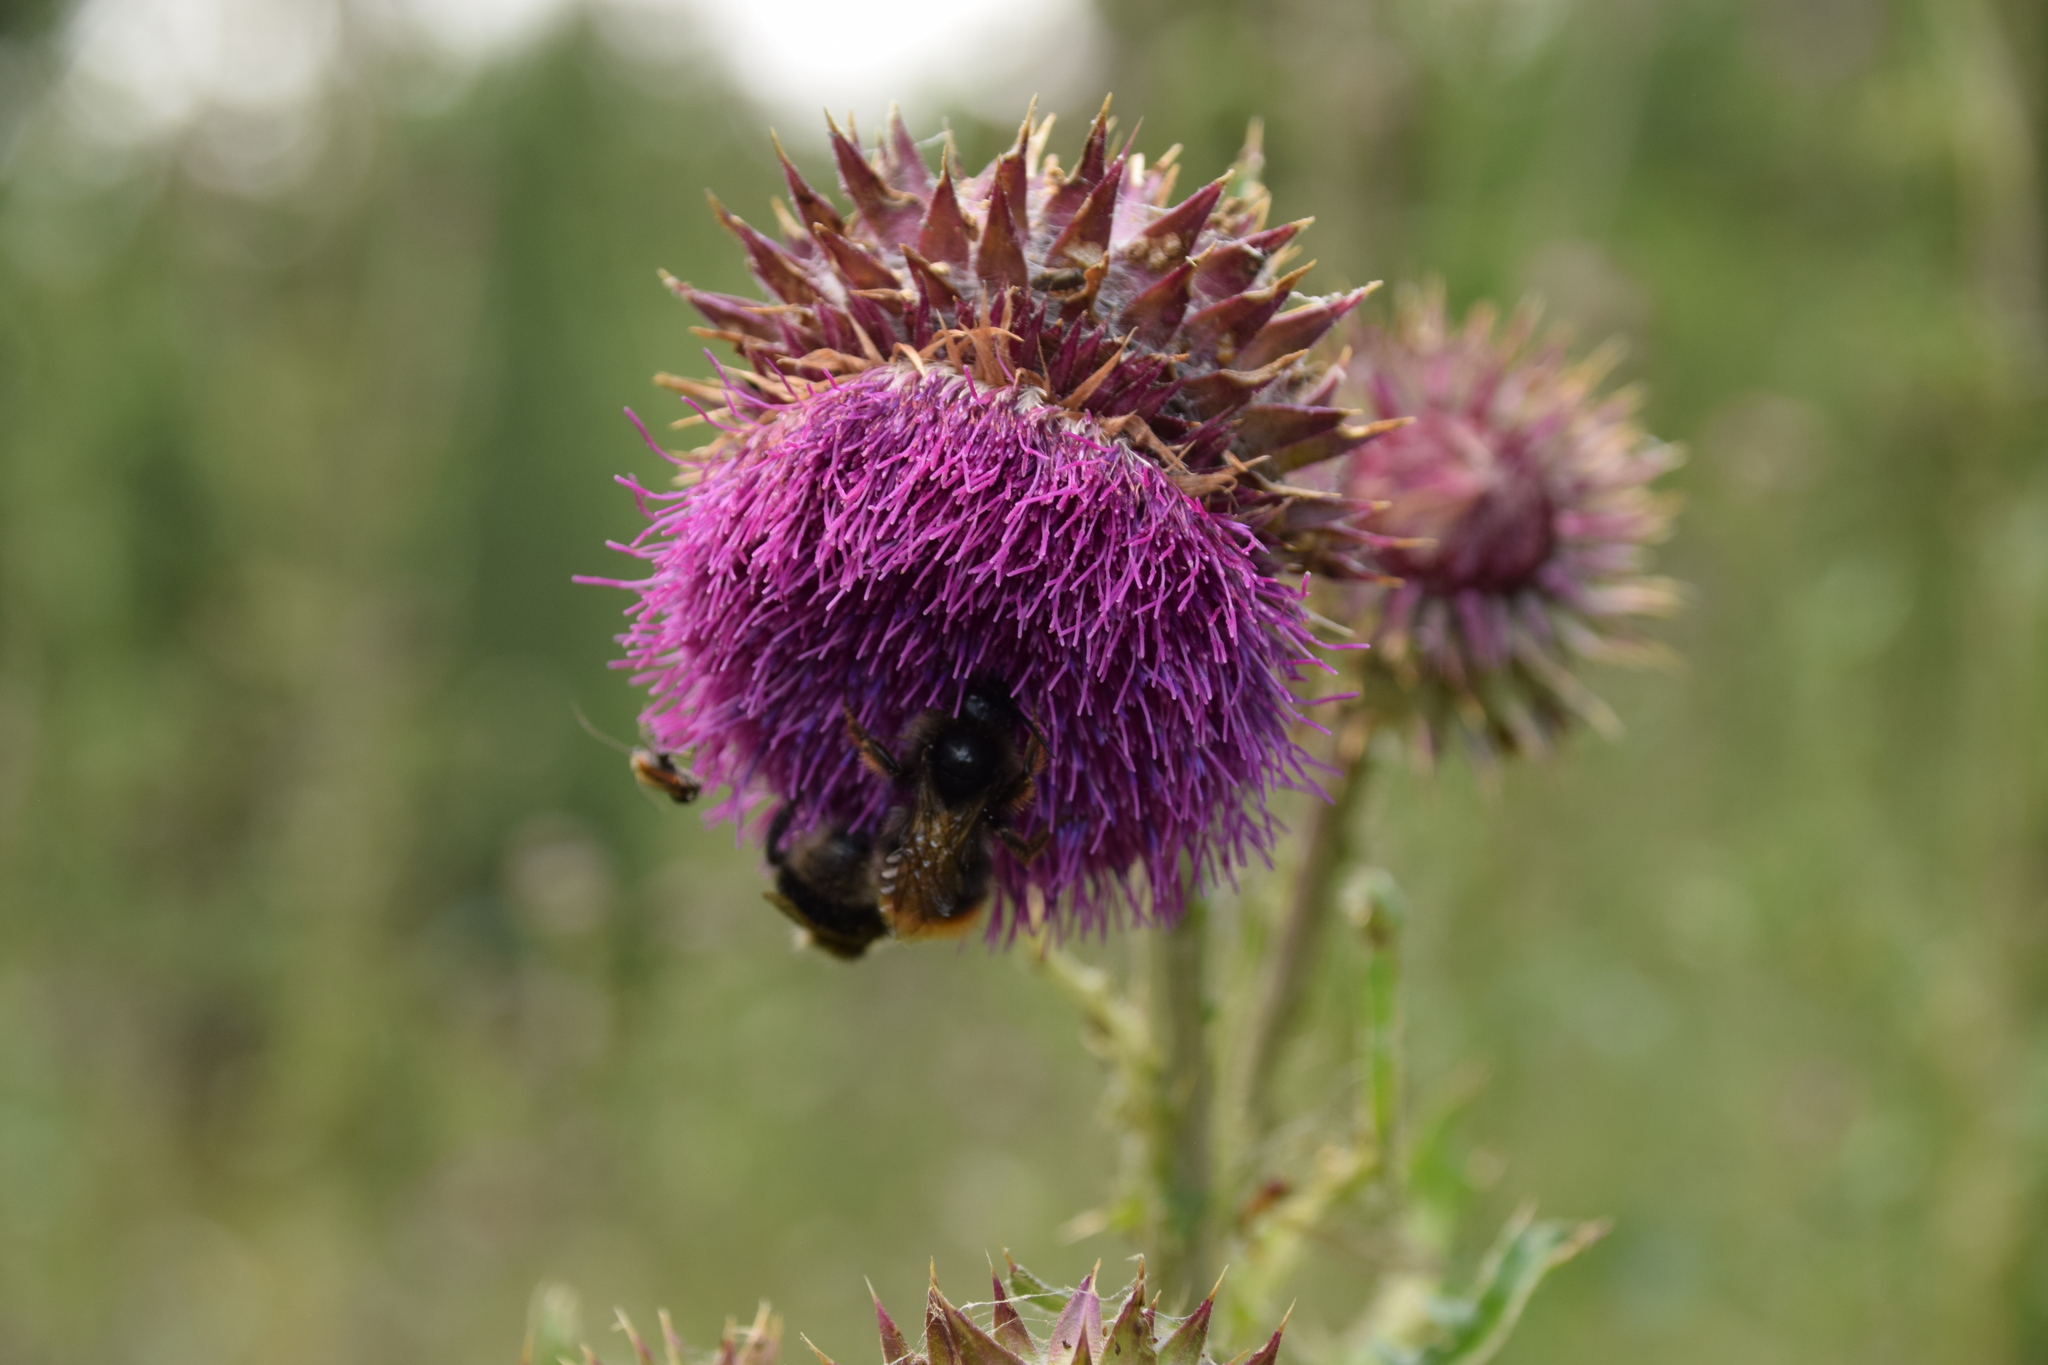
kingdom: Plantae
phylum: Tracheophyta
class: Magnoliopsida
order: Asterales
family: Asteraceae
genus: Carduus
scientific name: Carduus nutans
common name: Musk thistle
